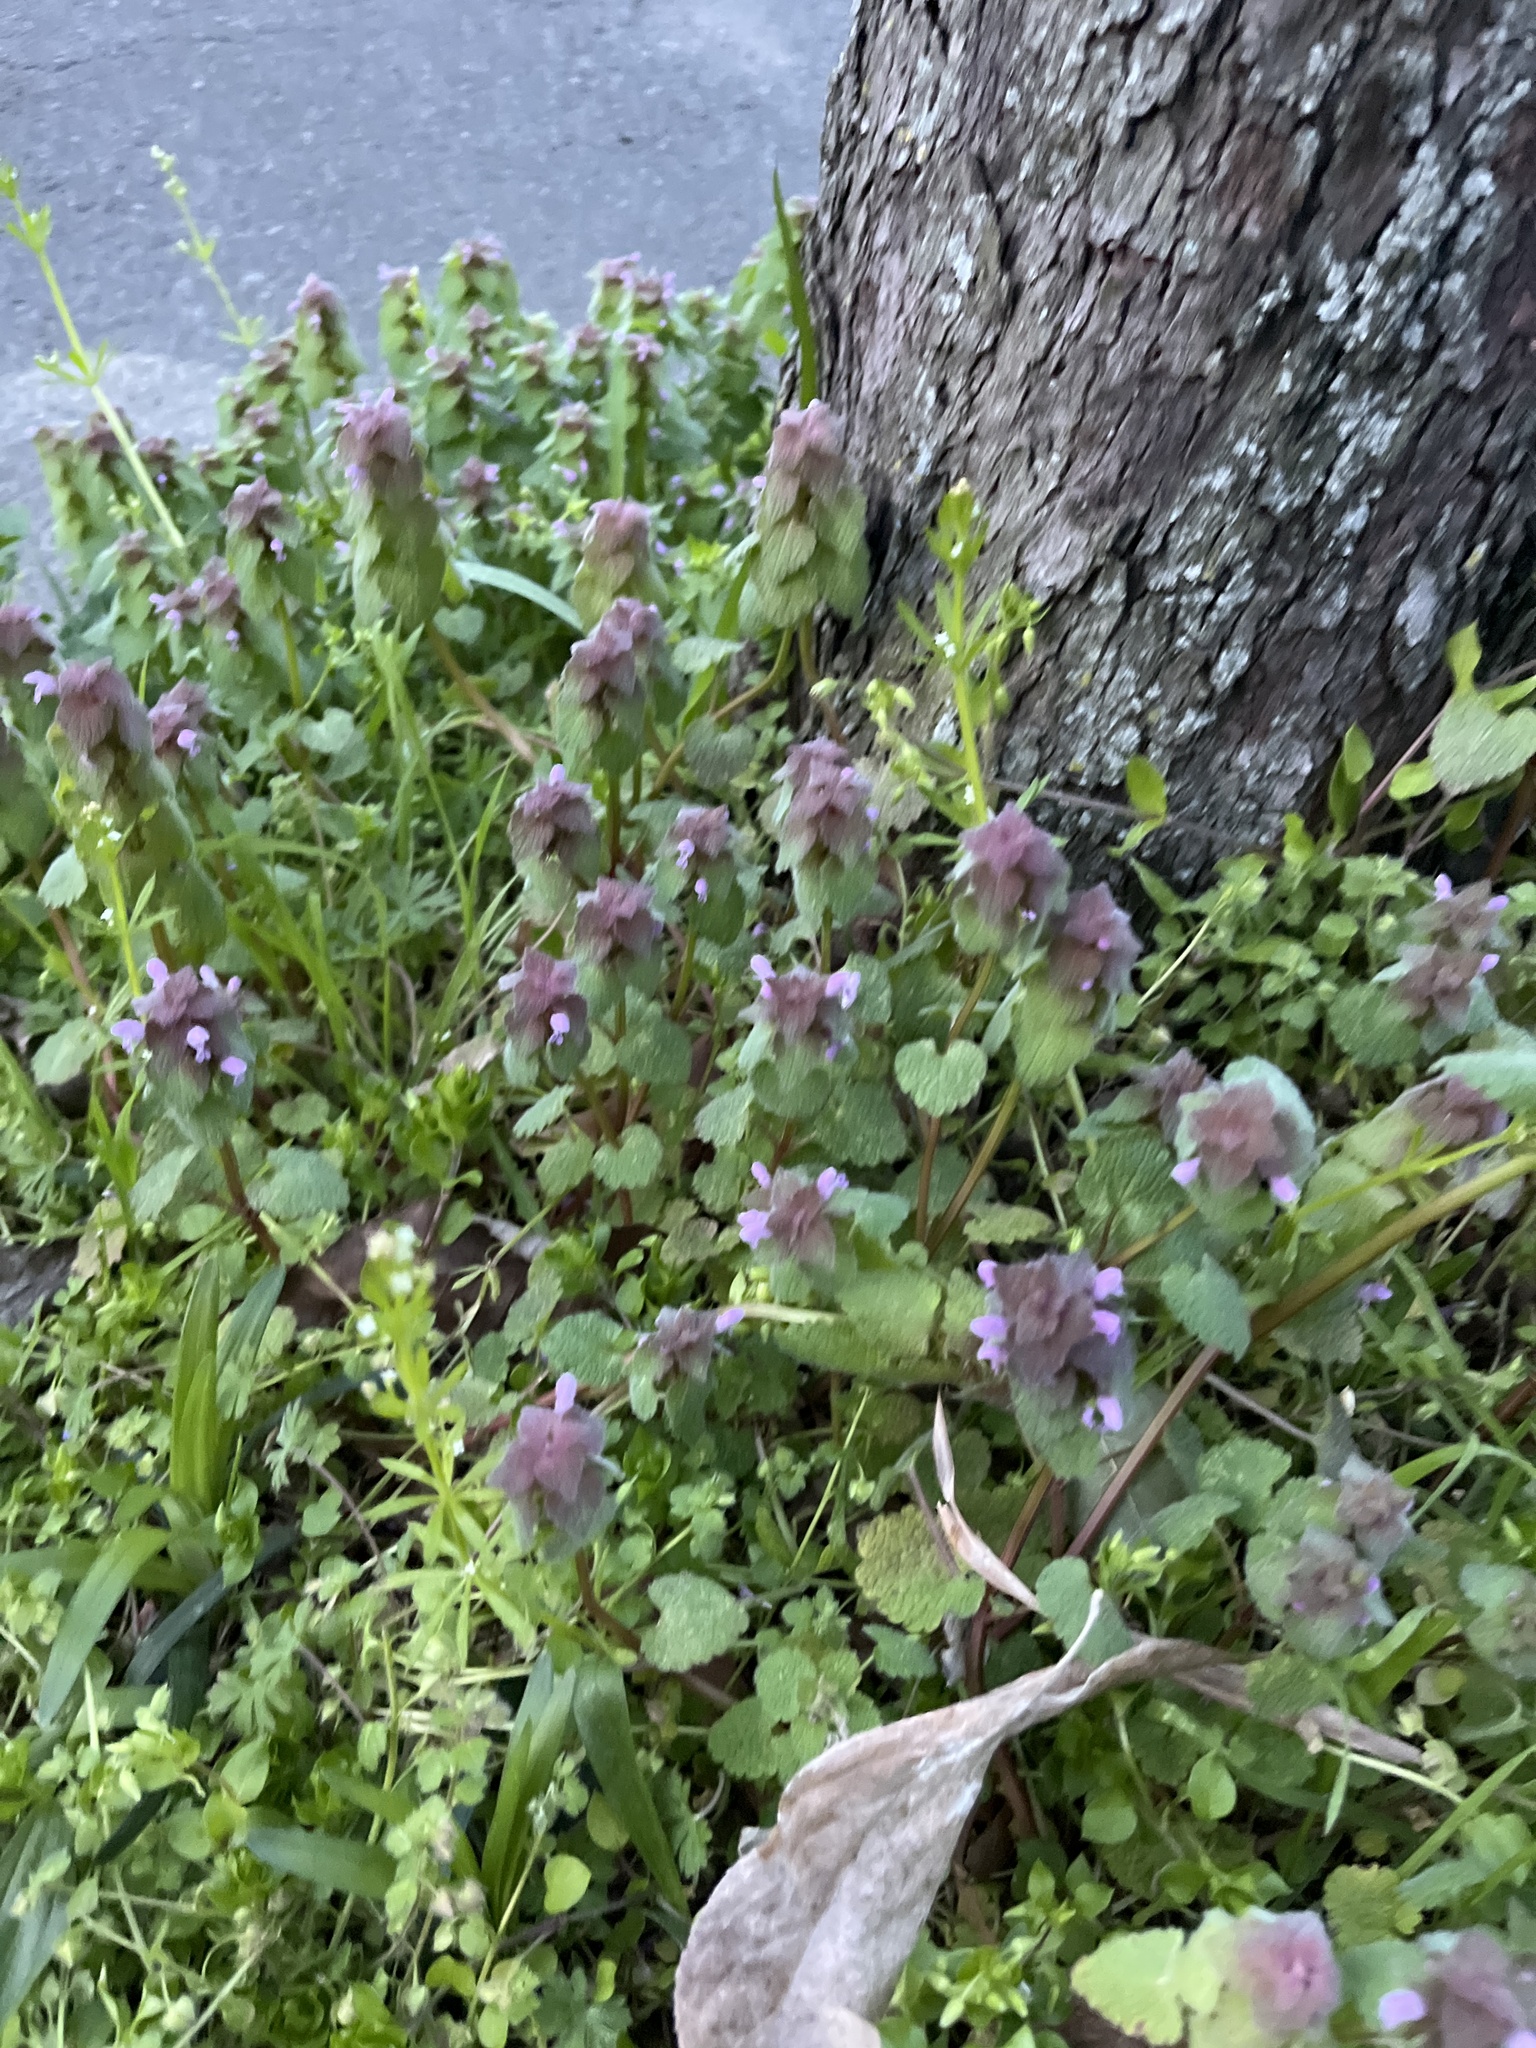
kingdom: Plantae
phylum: Tracheophyta
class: Magnoliopsida
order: Lamiales
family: Lamiaceae
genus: Lamium
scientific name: Lamium purpureum
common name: Red dead-nettle
